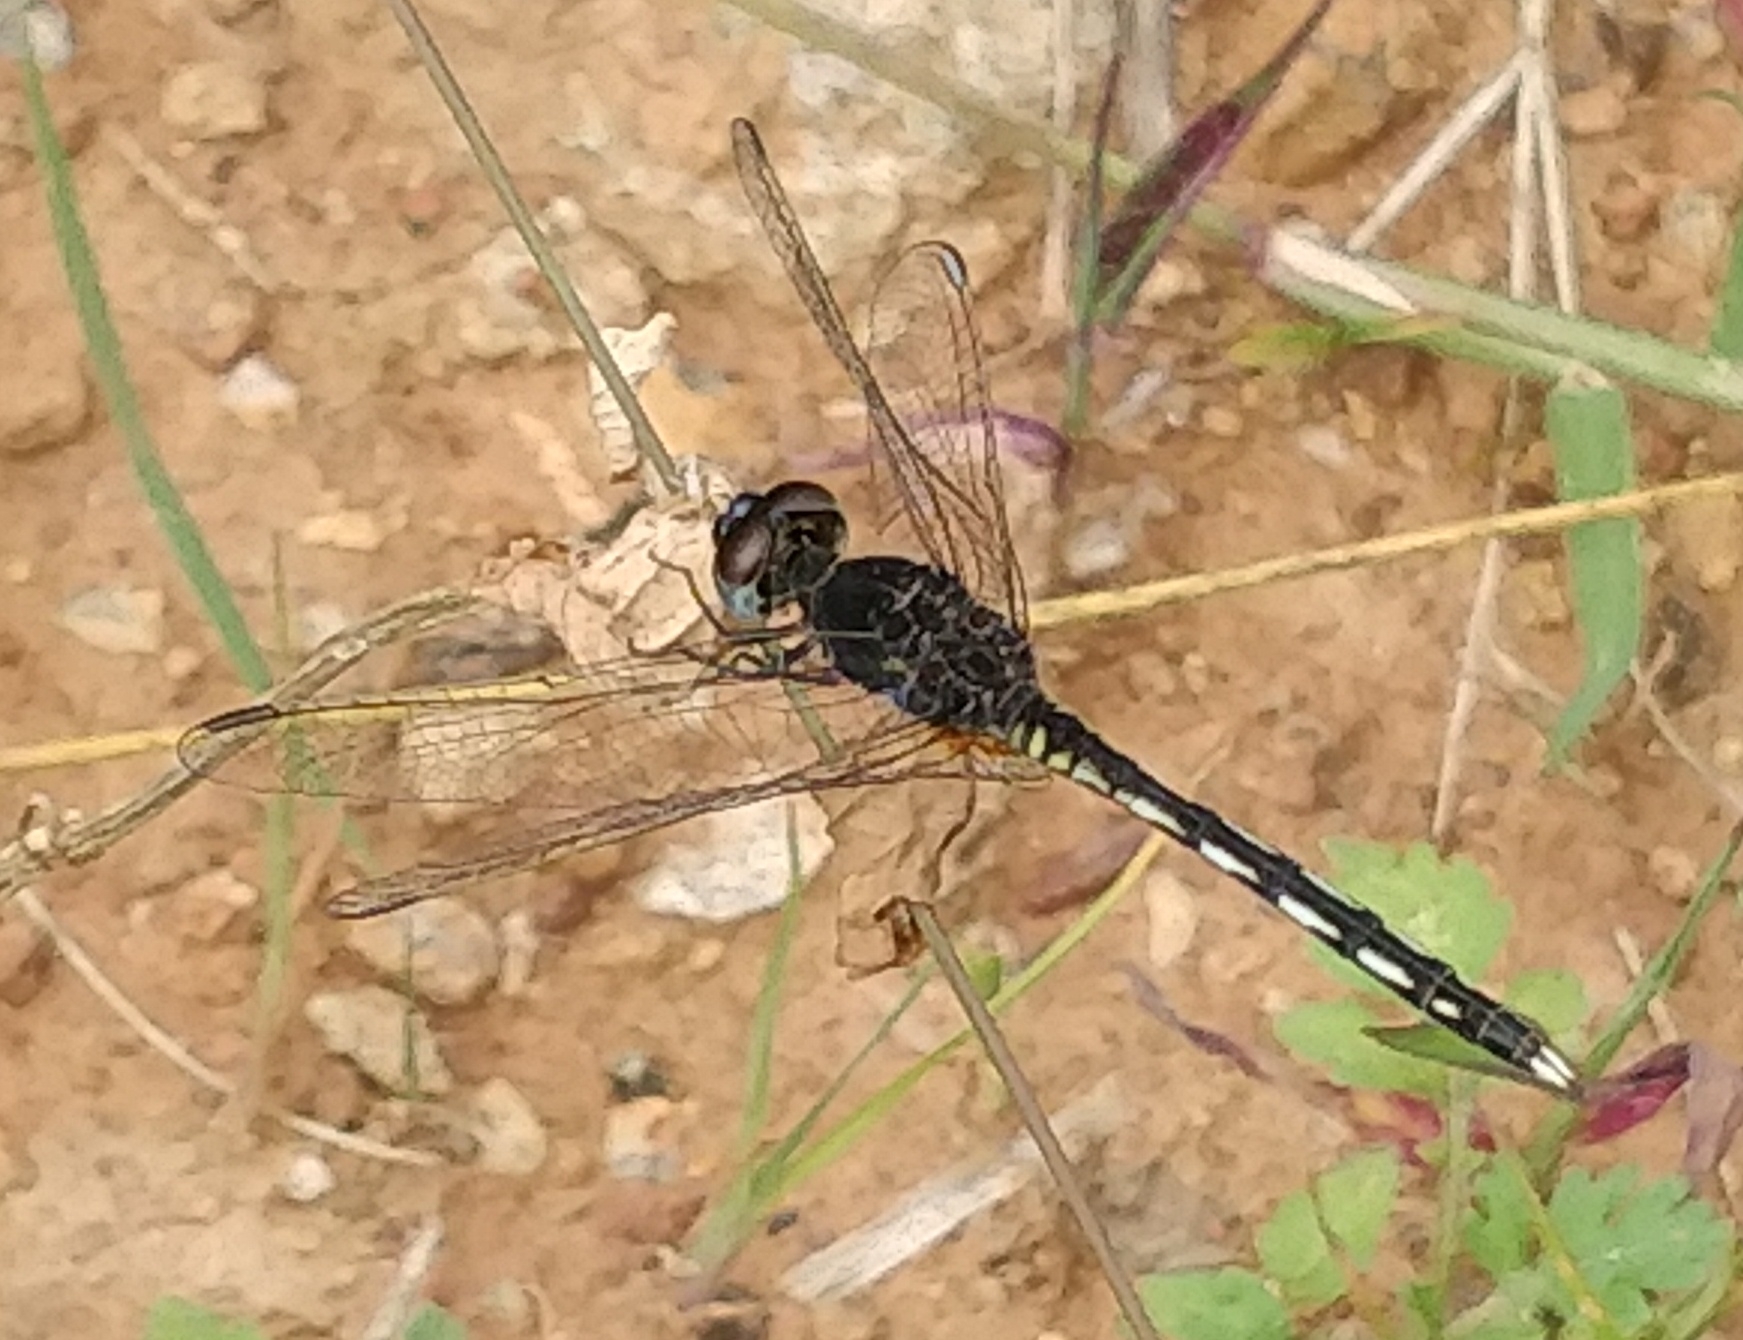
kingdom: Animalia
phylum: Arthropoda
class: Insecta
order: Odonata
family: Libellulidae
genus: Diplacodes
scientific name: Diplacodes lefebvrii
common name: Black percher
